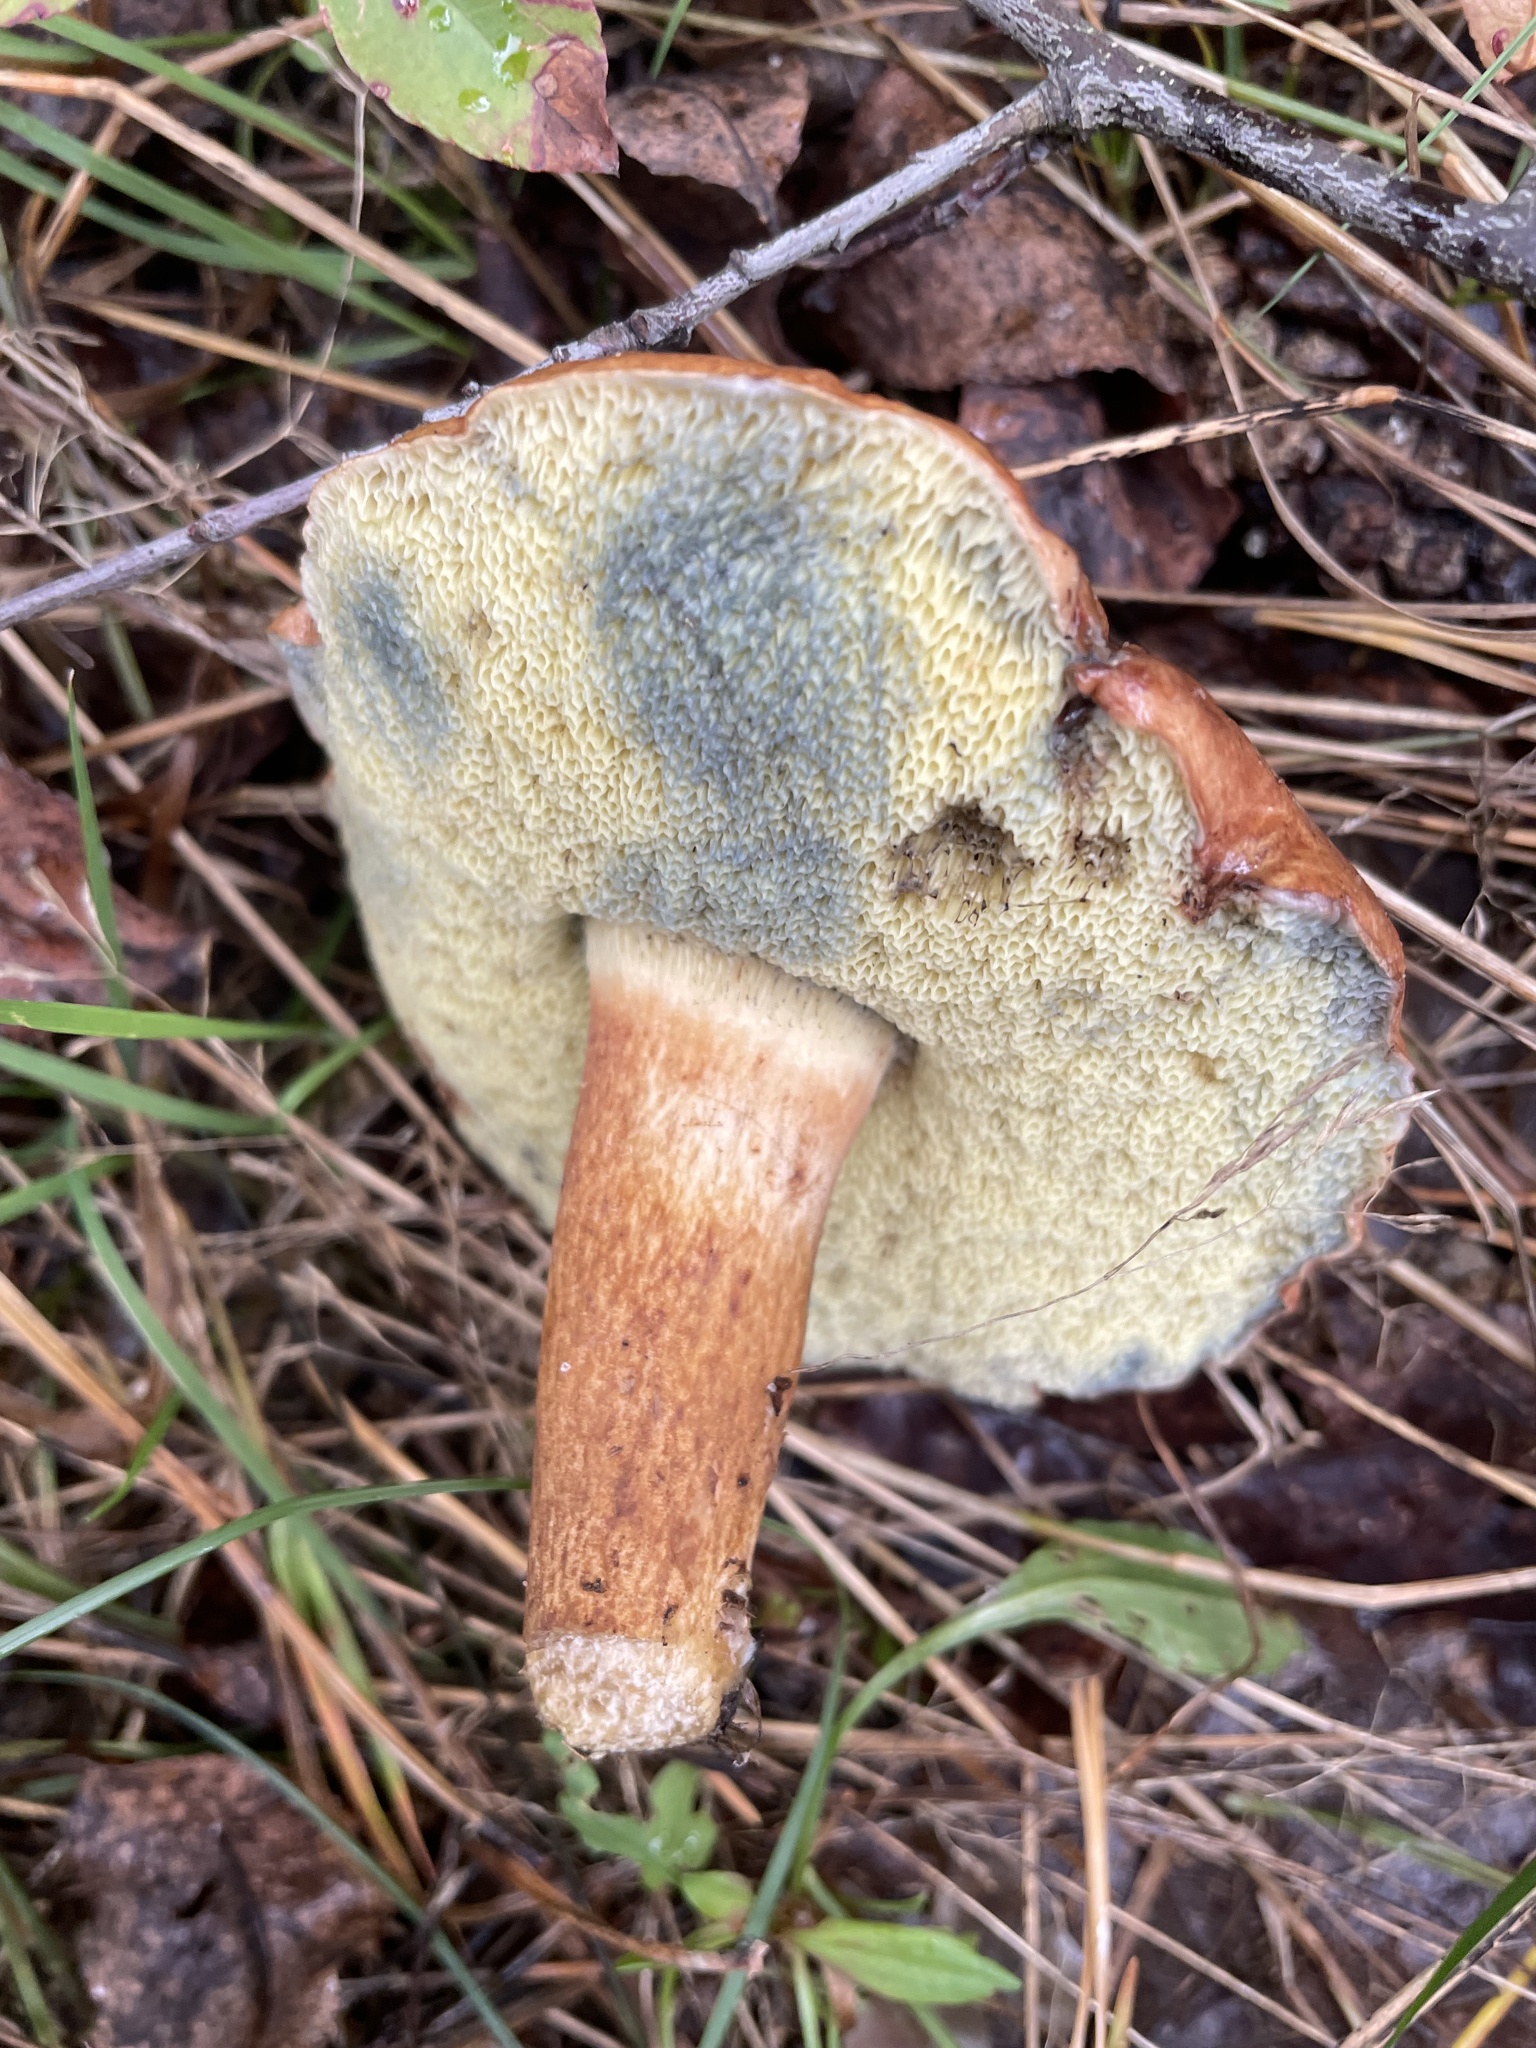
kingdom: Fungi
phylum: Basidiomycota
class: Agaricomycetes
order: Boletales
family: Boletaceae
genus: Imleria
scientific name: Imleria badia
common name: Bay bolete
